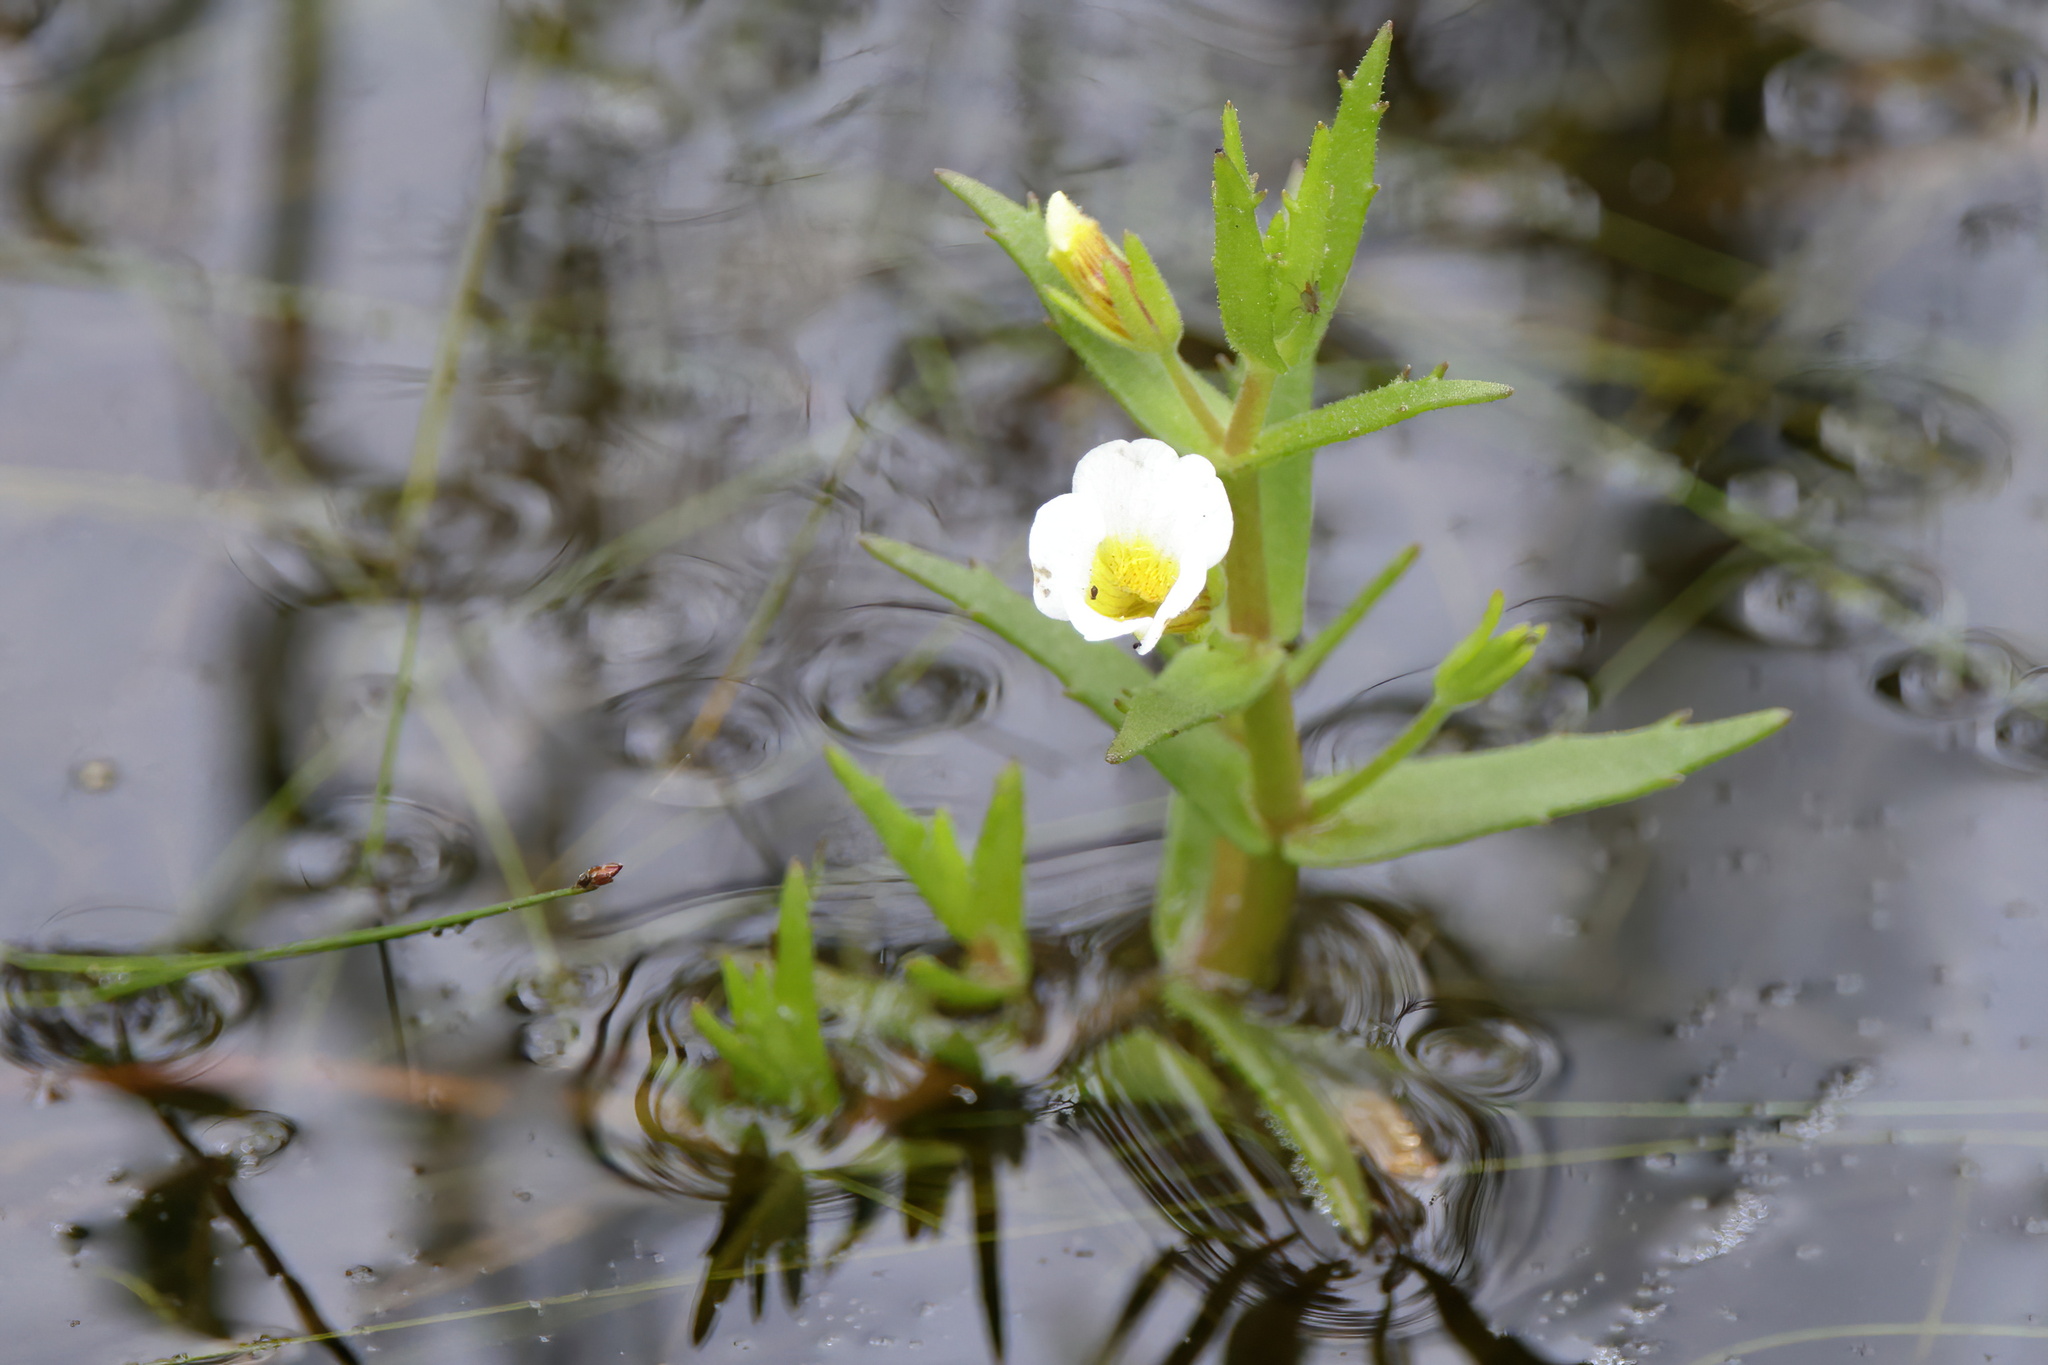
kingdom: Plantae
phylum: Tracheophyta
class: Magnoliopsida
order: Lamiales
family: Plantaginaceae
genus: Gratiola
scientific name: Gratiola virginiana
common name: Roundfruit hedgehyssop
